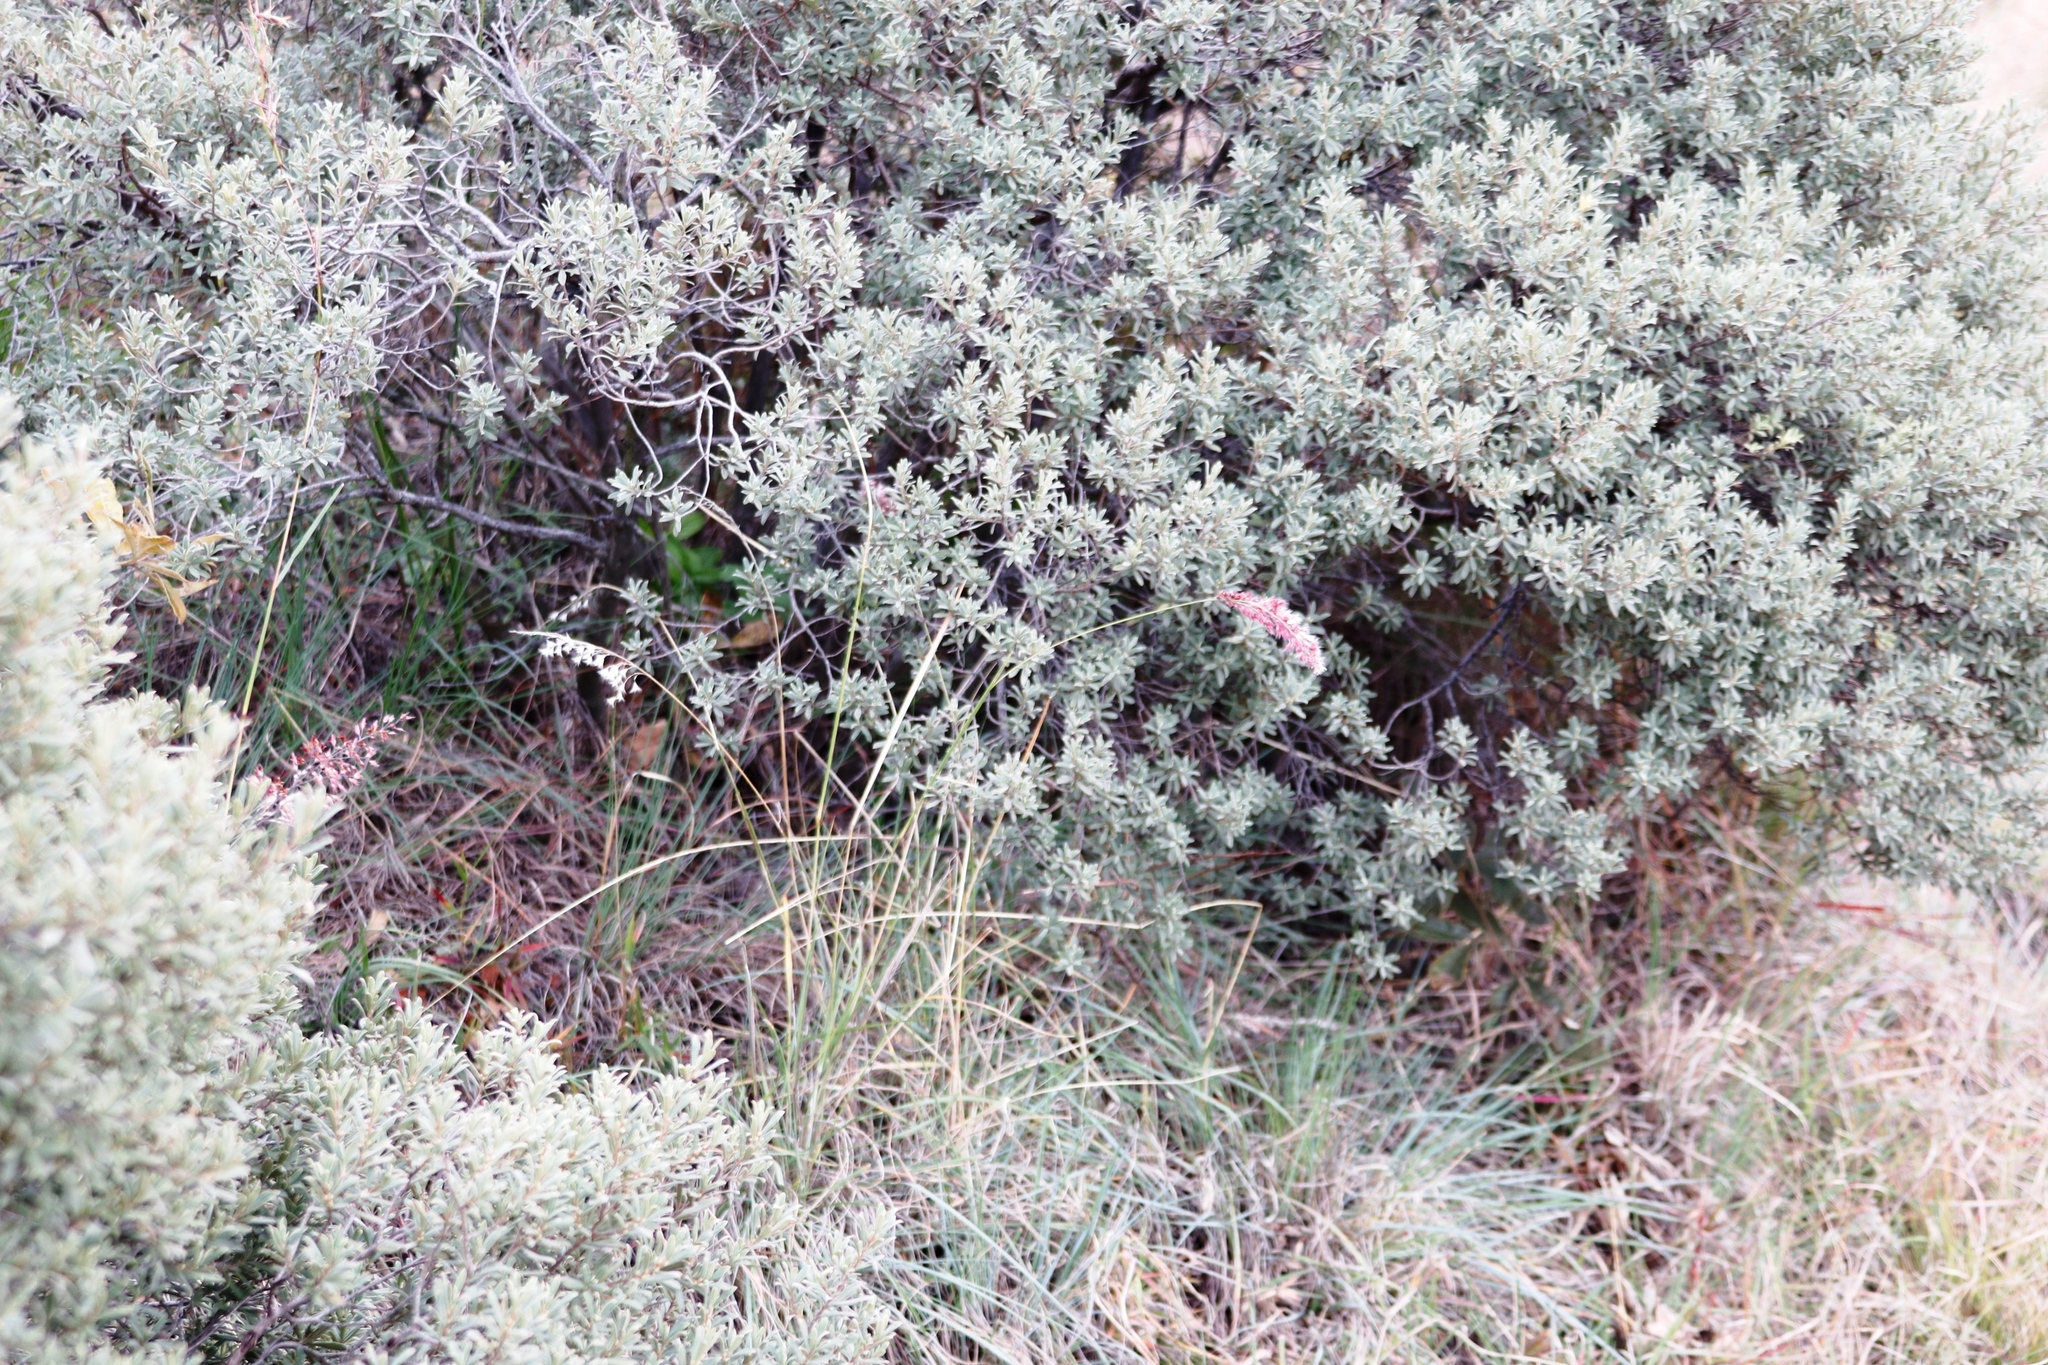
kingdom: Plantae
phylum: Tracheophyta
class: Magnoliopsida
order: Ericales
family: Ebenaceae
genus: Diospyros
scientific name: Diospyros pubescens
